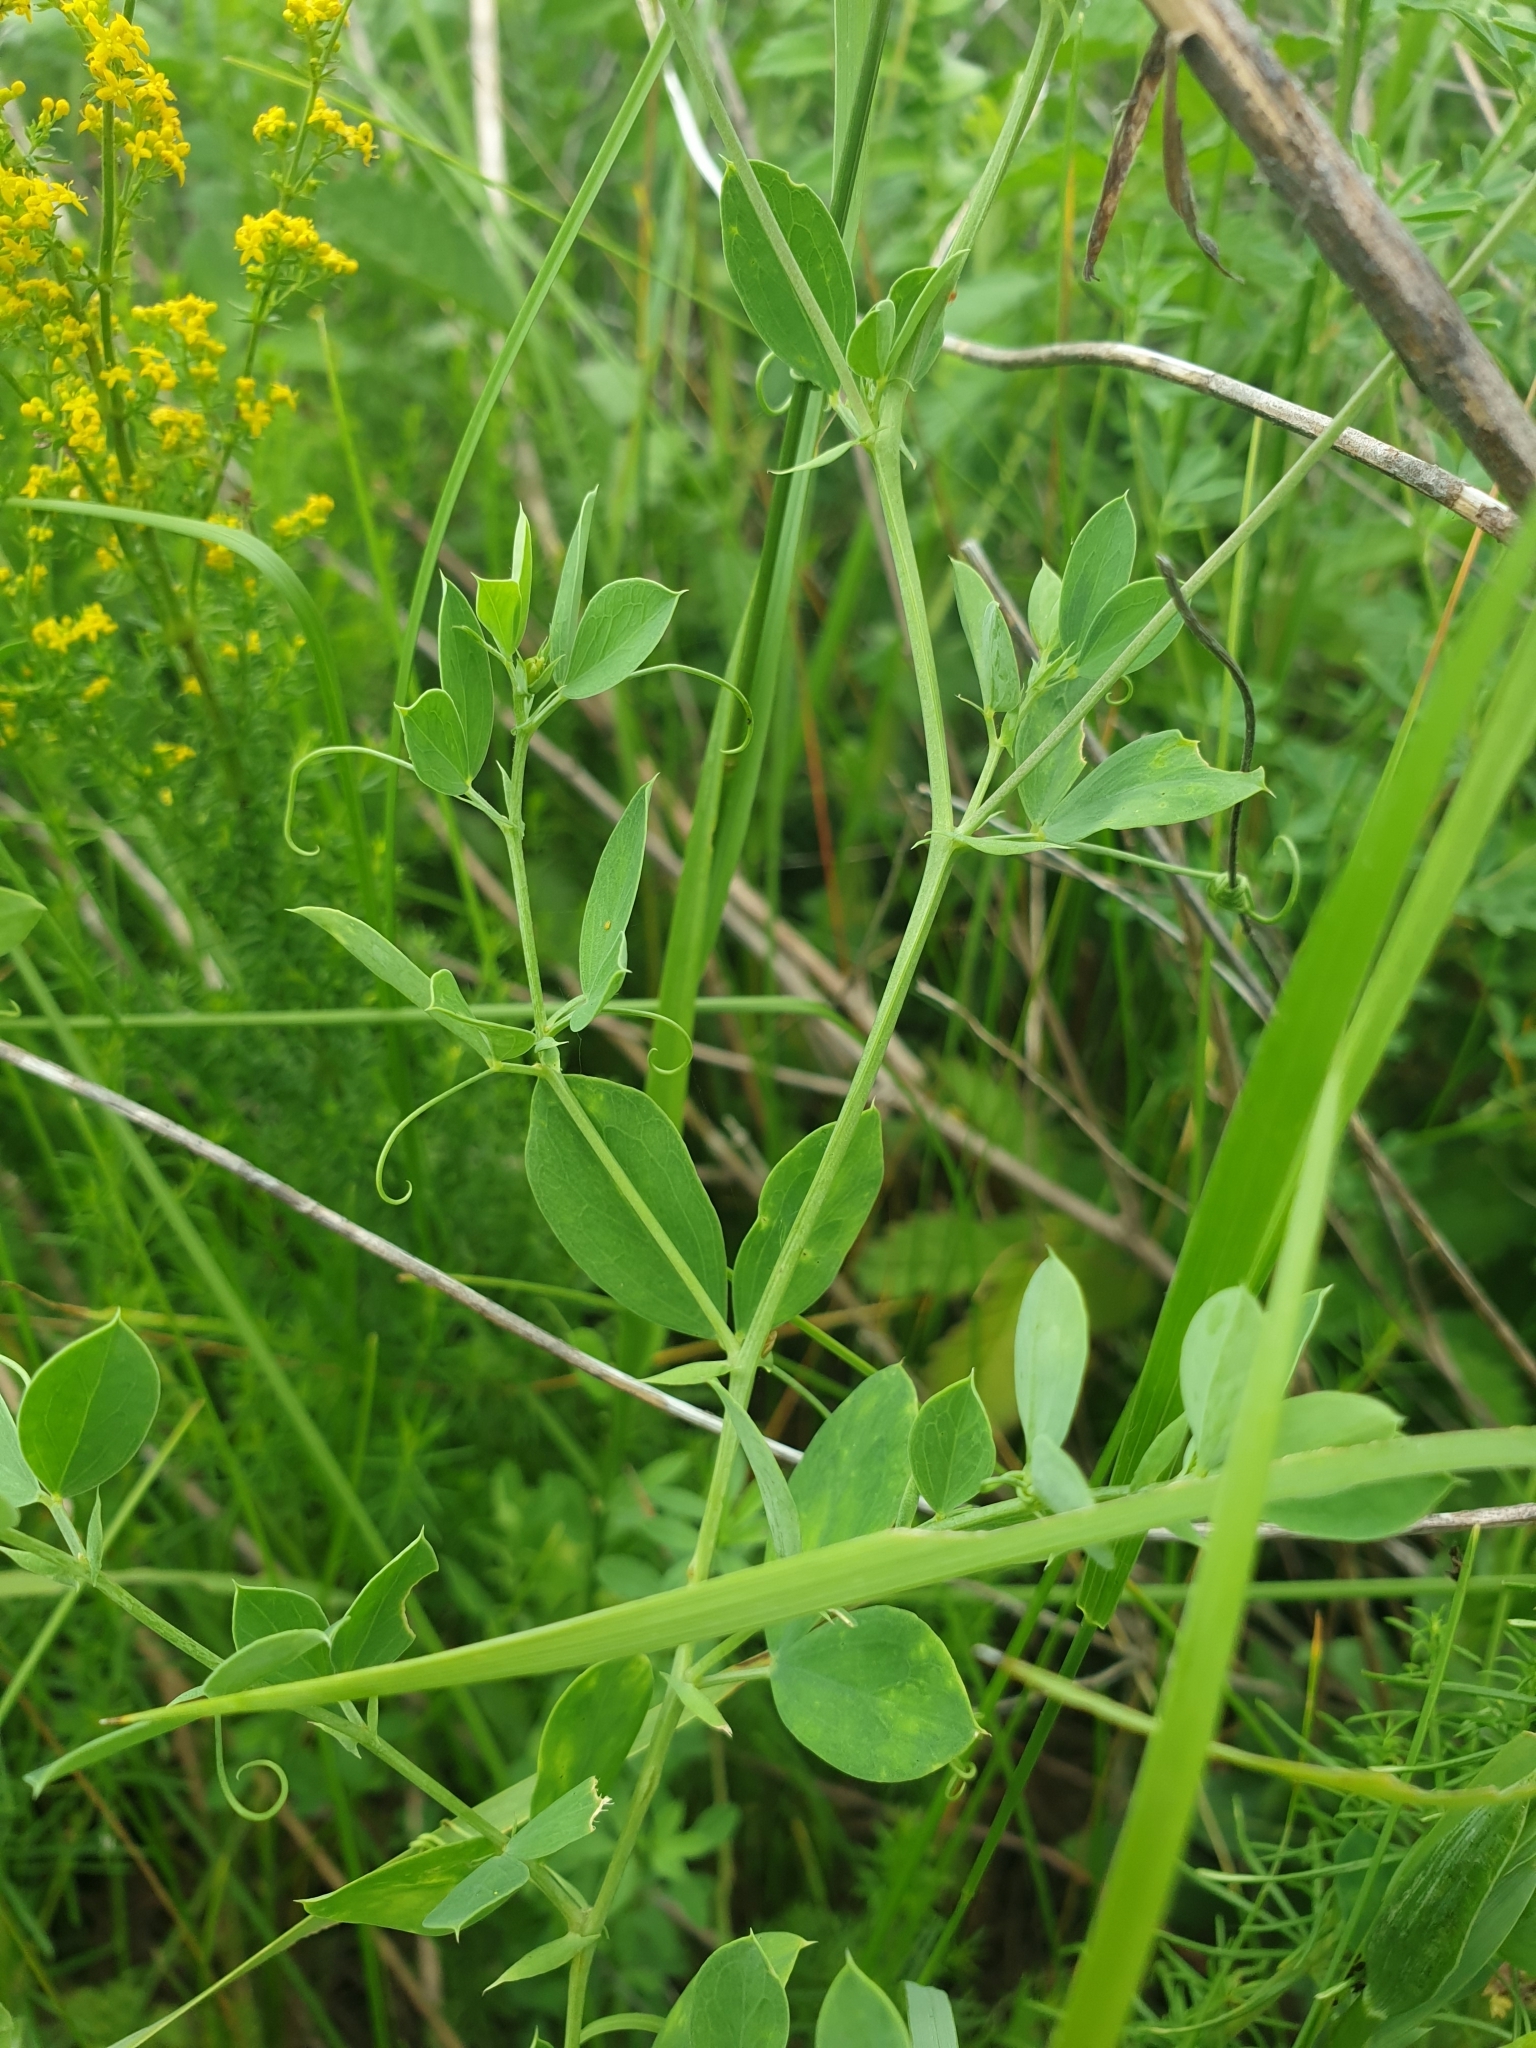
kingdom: Plantae
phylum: Tracheophyta
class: Magnoliopsida
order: Fabales
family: Fabaceae
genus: Lathyrus
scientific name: Lathyrus tuberosus
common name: Tuberous pea
